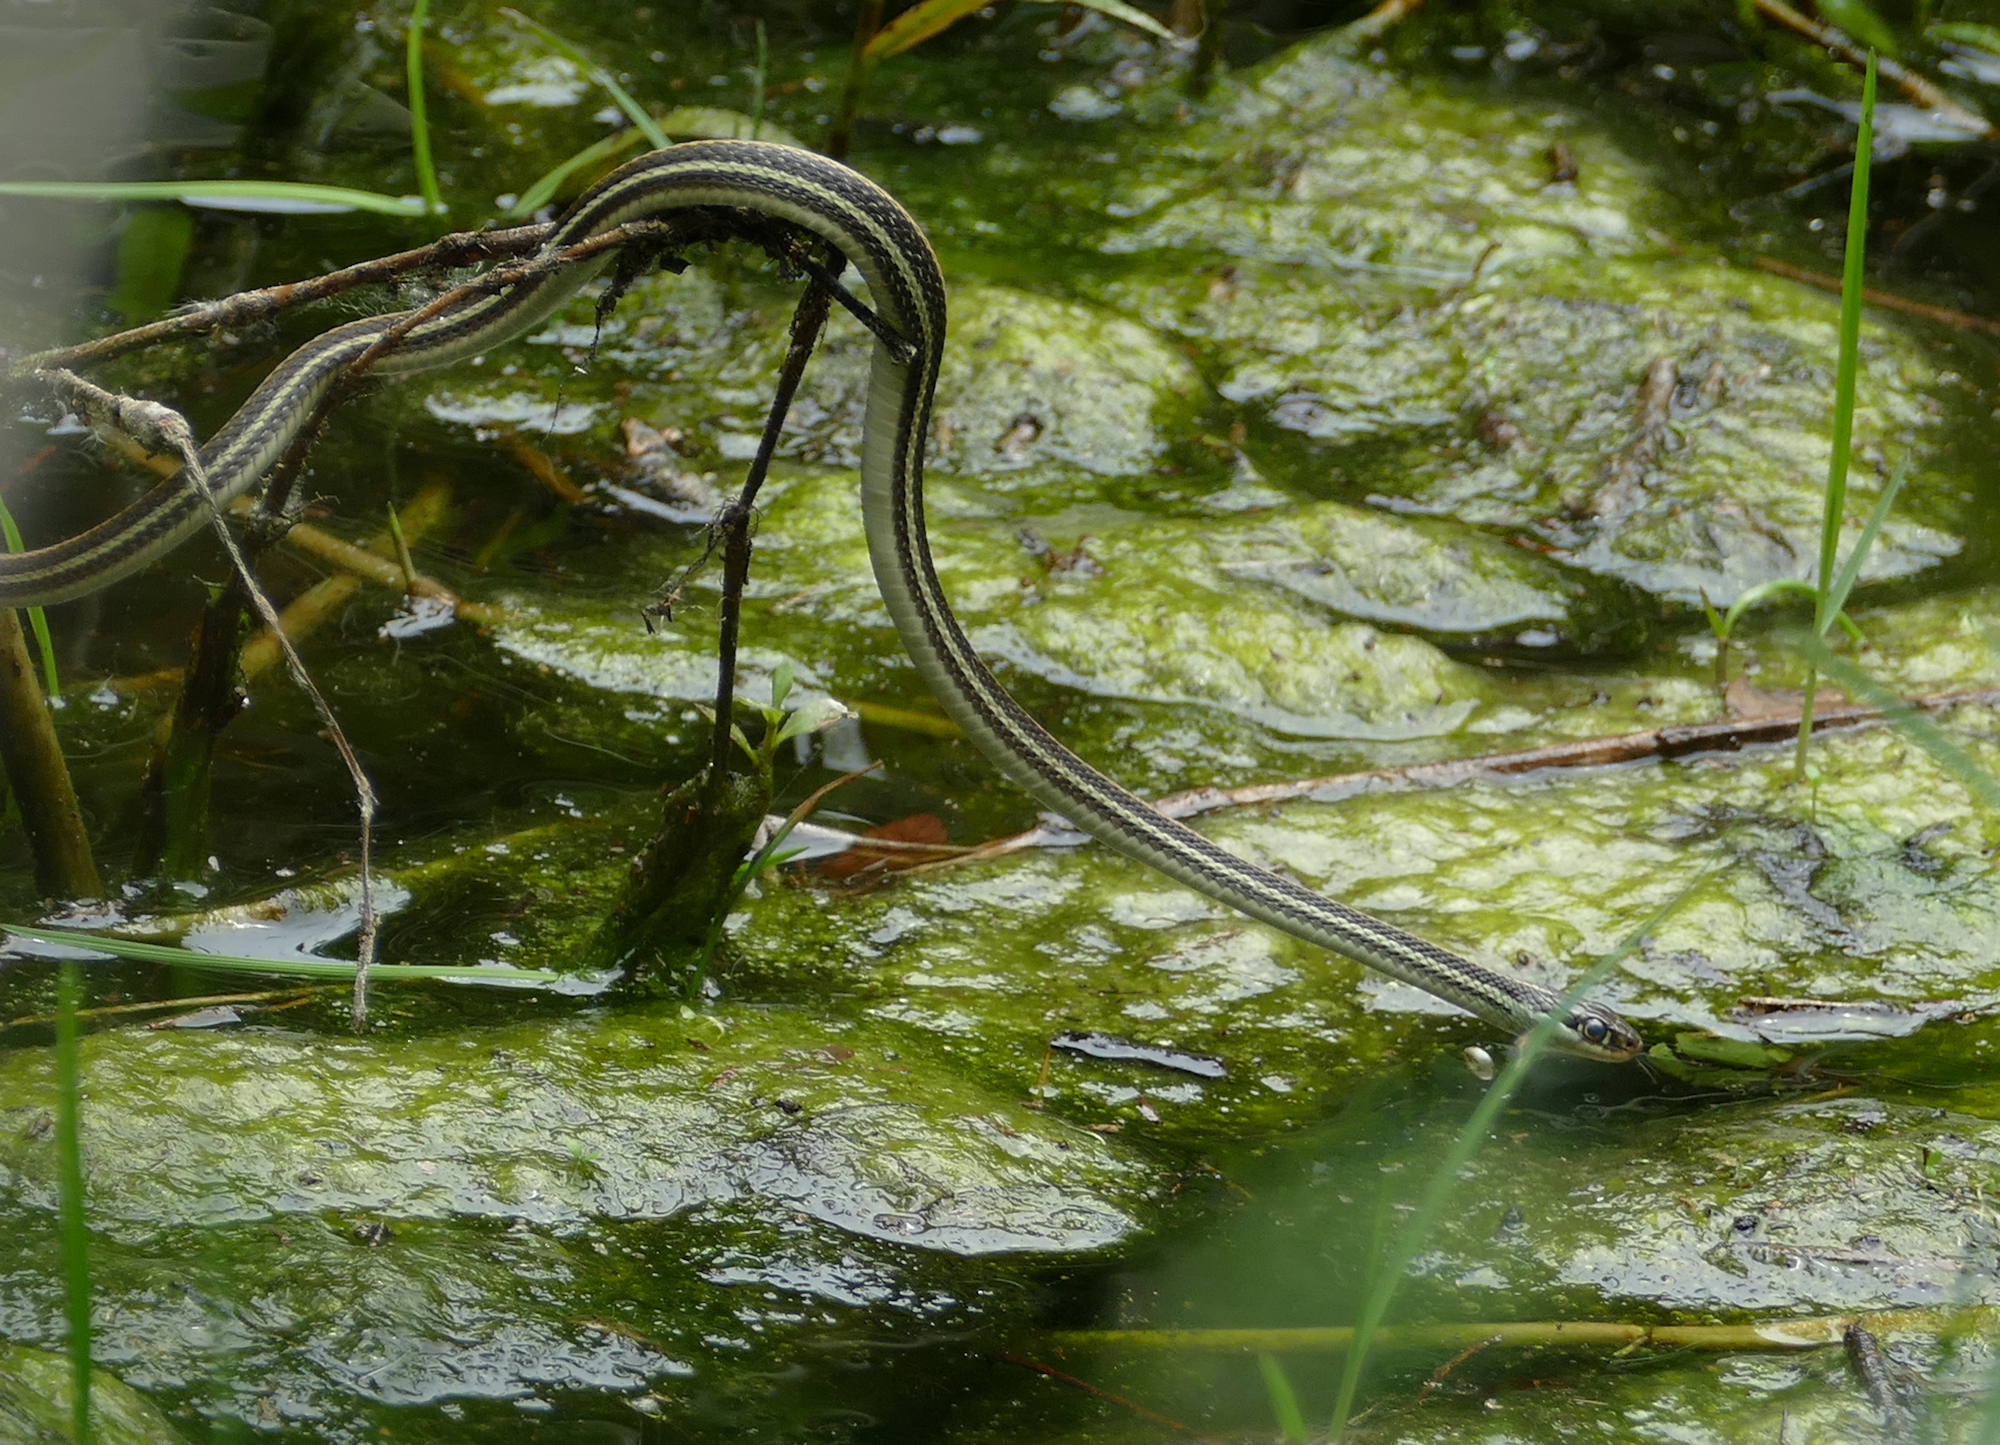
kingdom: Animalia
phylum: Chordata
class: Squamata
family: Colubridae
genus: Thamnophis
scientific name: Thamnophis proximus
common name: Western ribbon snake
